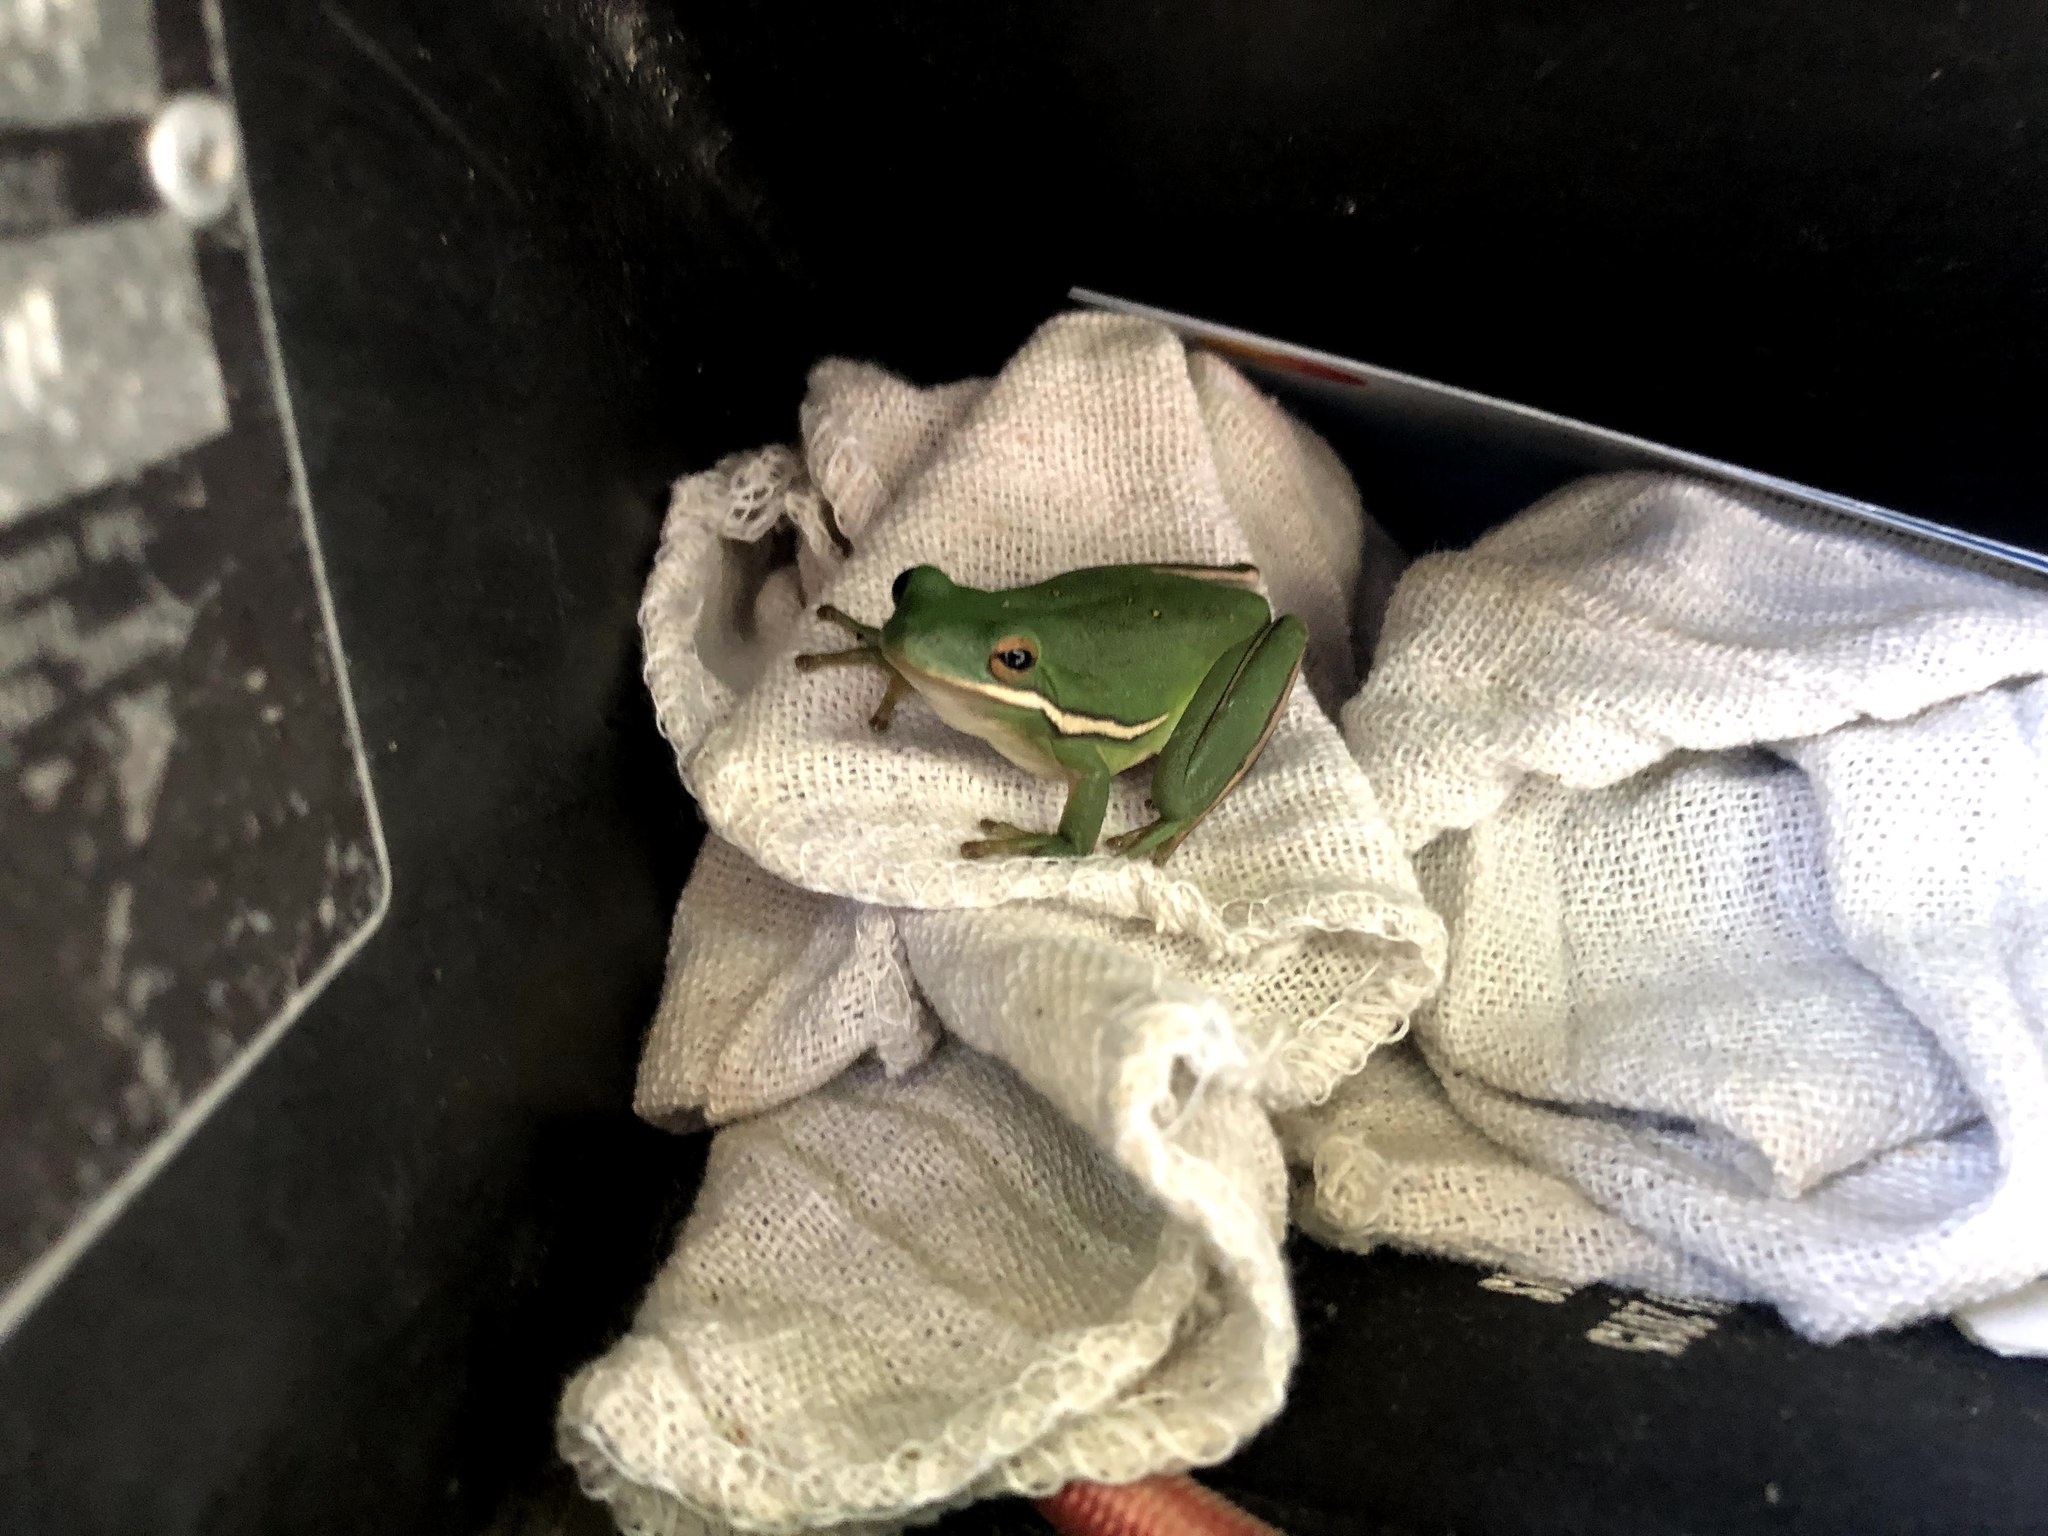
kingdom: Animalia
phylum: Chordata
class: Amphibia
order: Anura
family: Hylidae
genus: Dryophytes
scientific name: Dryophytes cinereus
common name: Green treefrog
